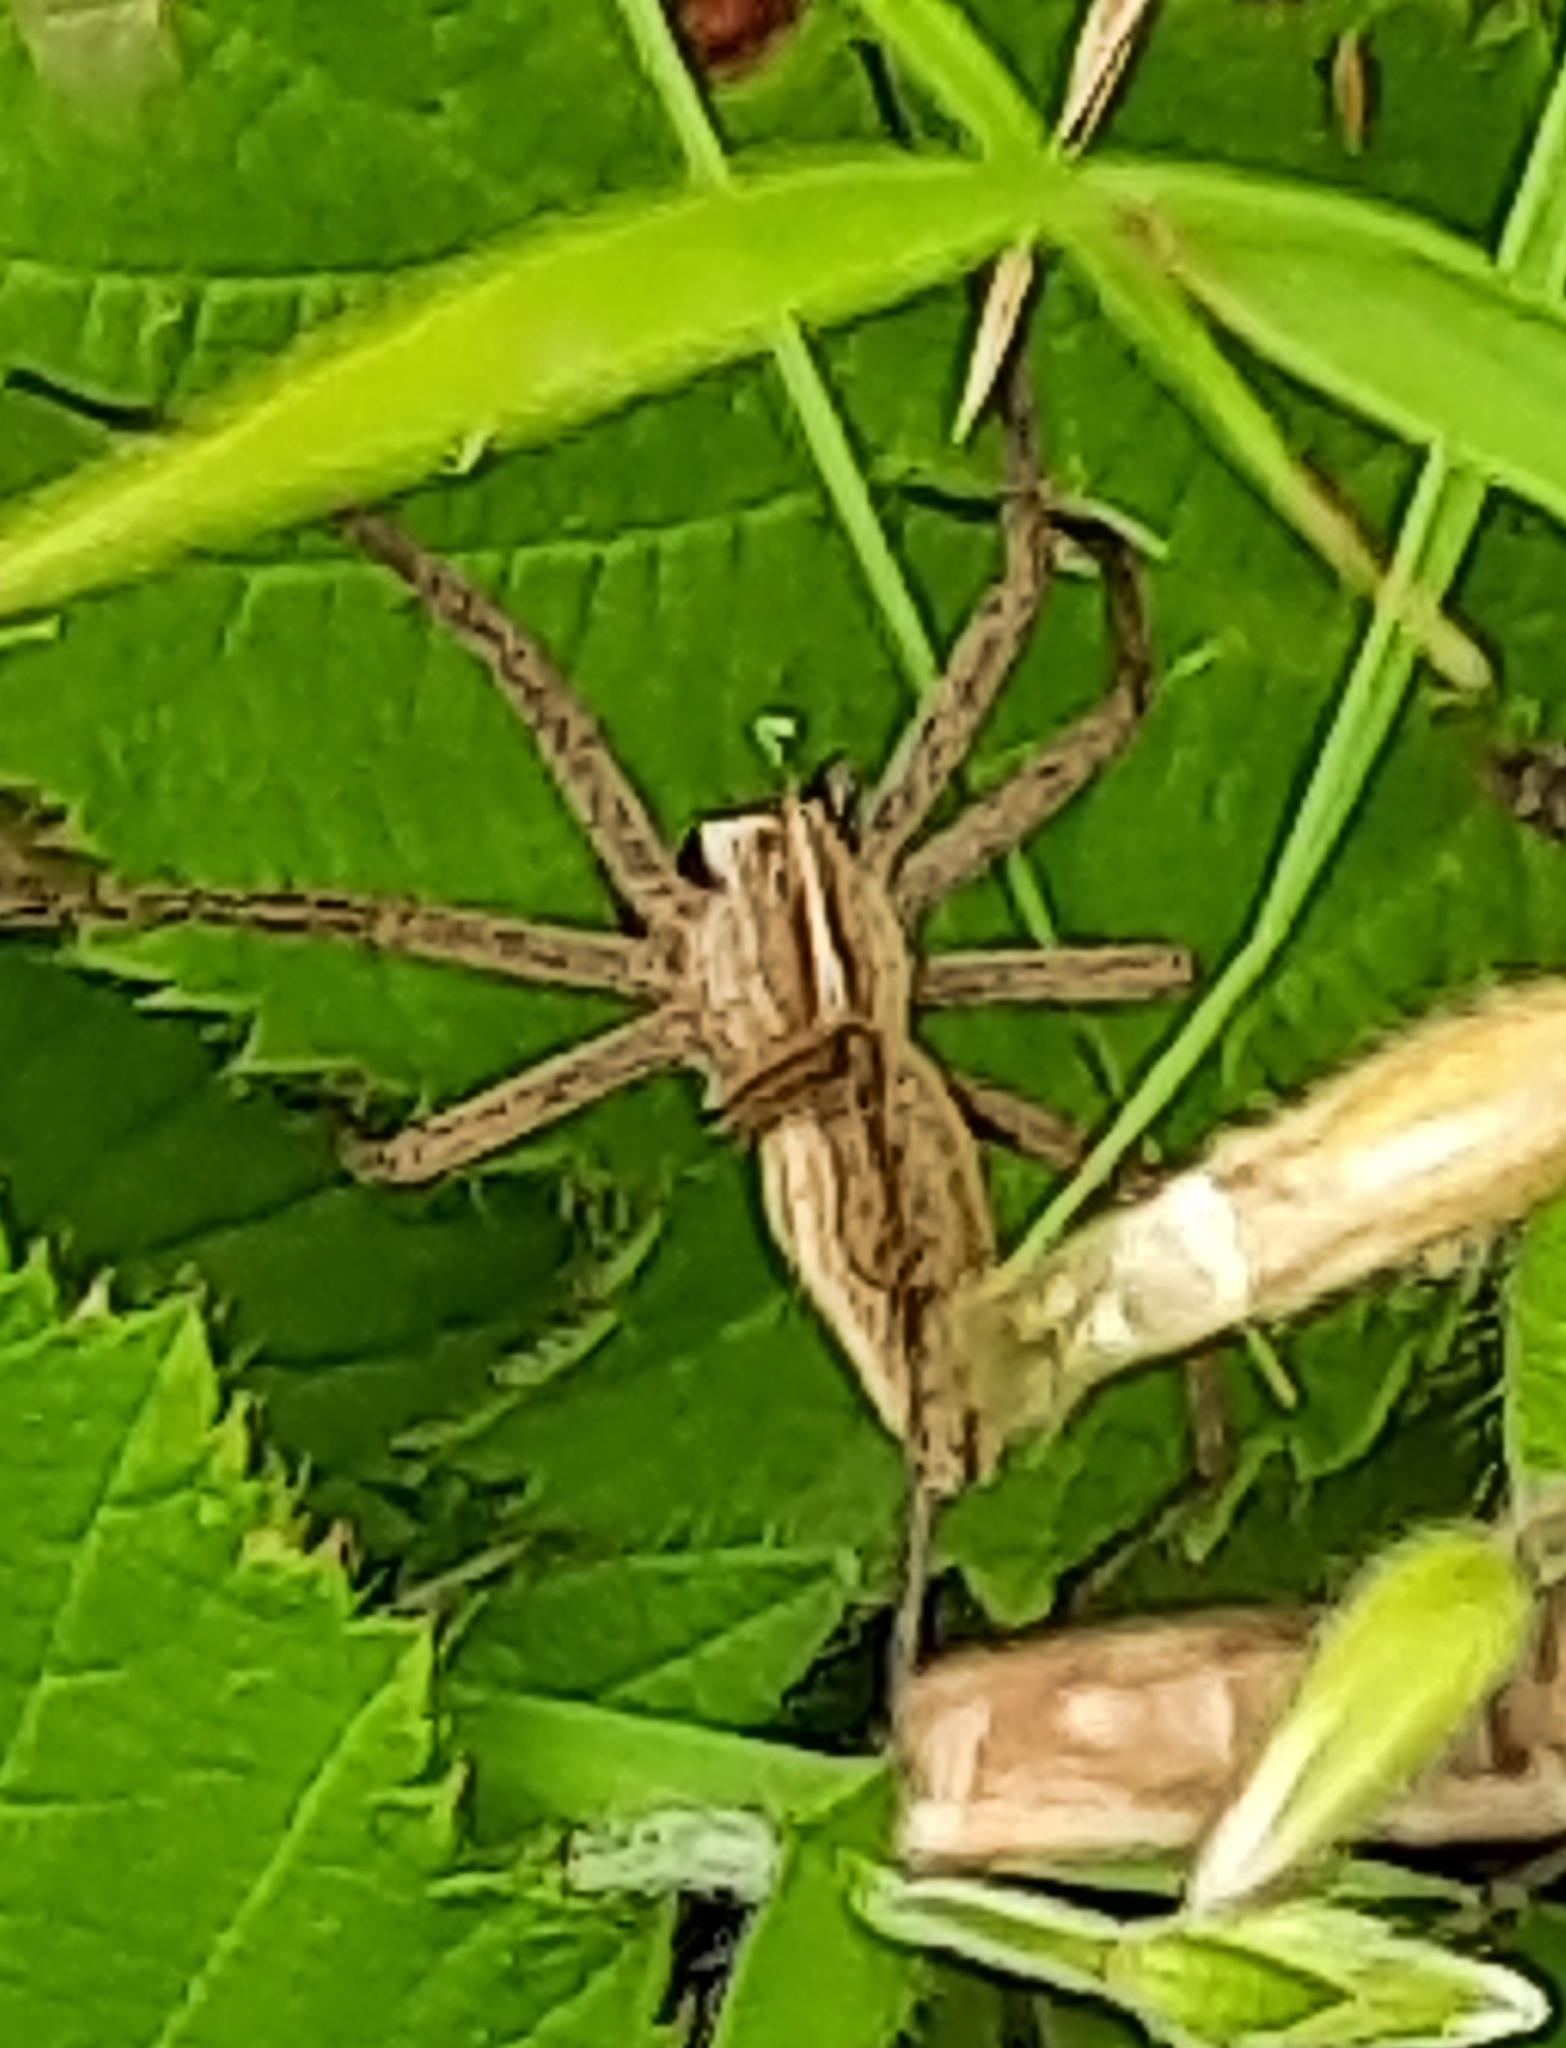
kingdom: Animalia
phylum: Arthropoda
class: Arachnida
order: Araneae
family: Pisauridae
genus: Pisaura
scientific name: Pisaura mirabilis
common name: Tent spider
